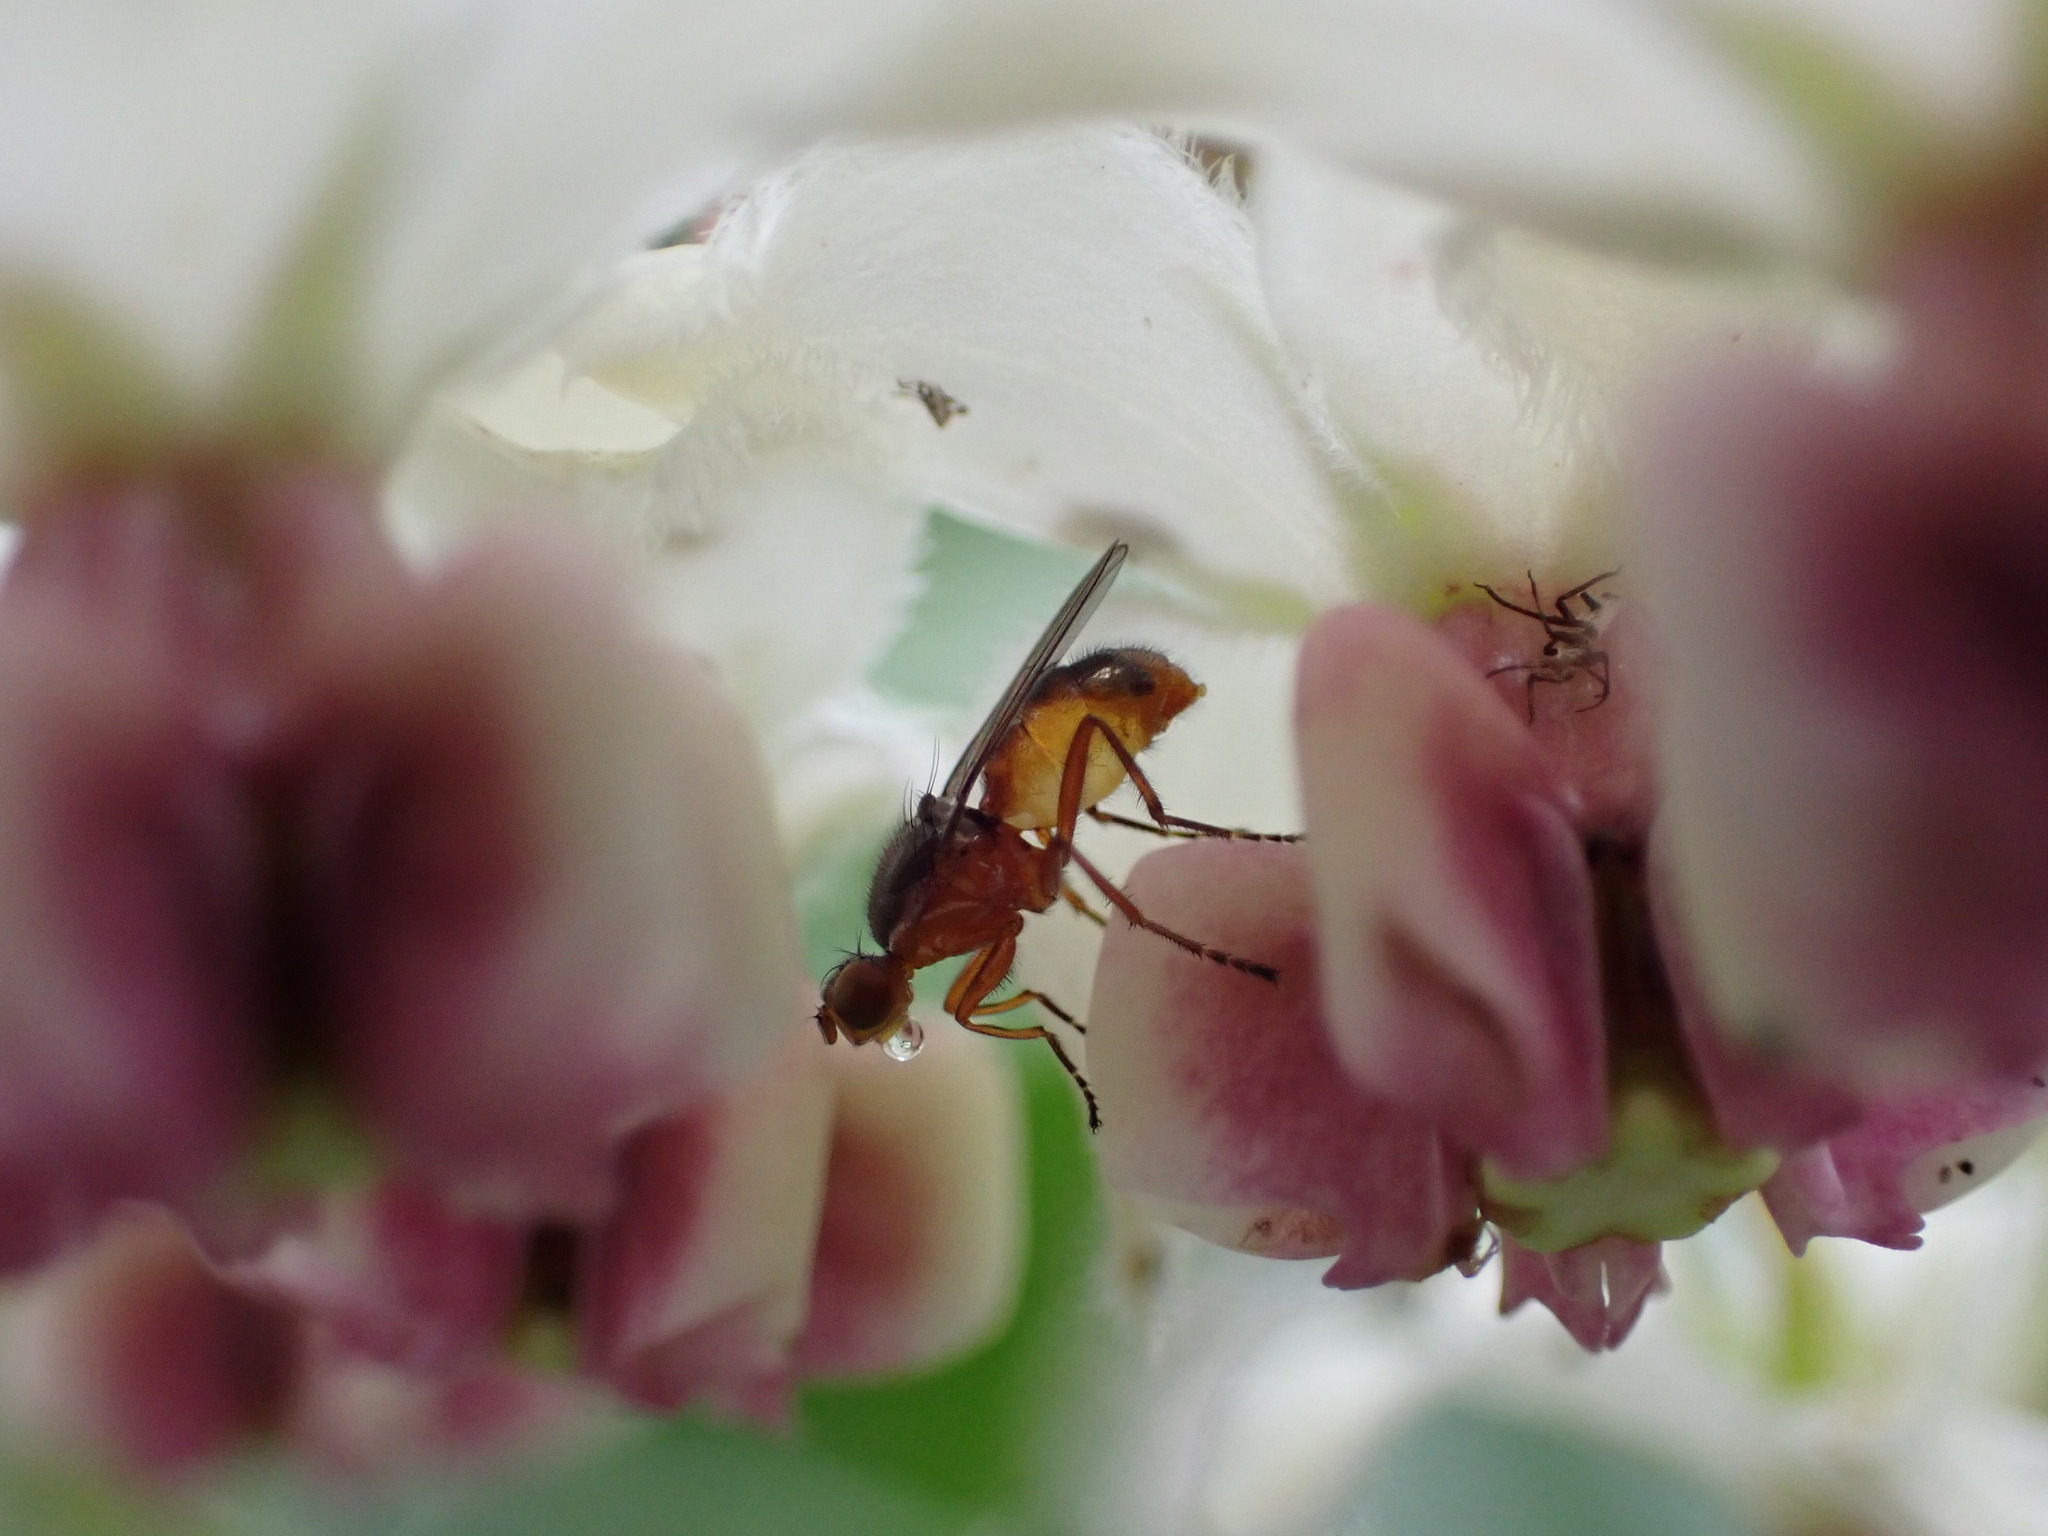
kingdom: Animalia
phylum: Arthropoda
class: Insecta
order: Diptera
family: Sepsidae
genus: Lasionemopoda
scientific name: Lasionemopoda hirsuta
